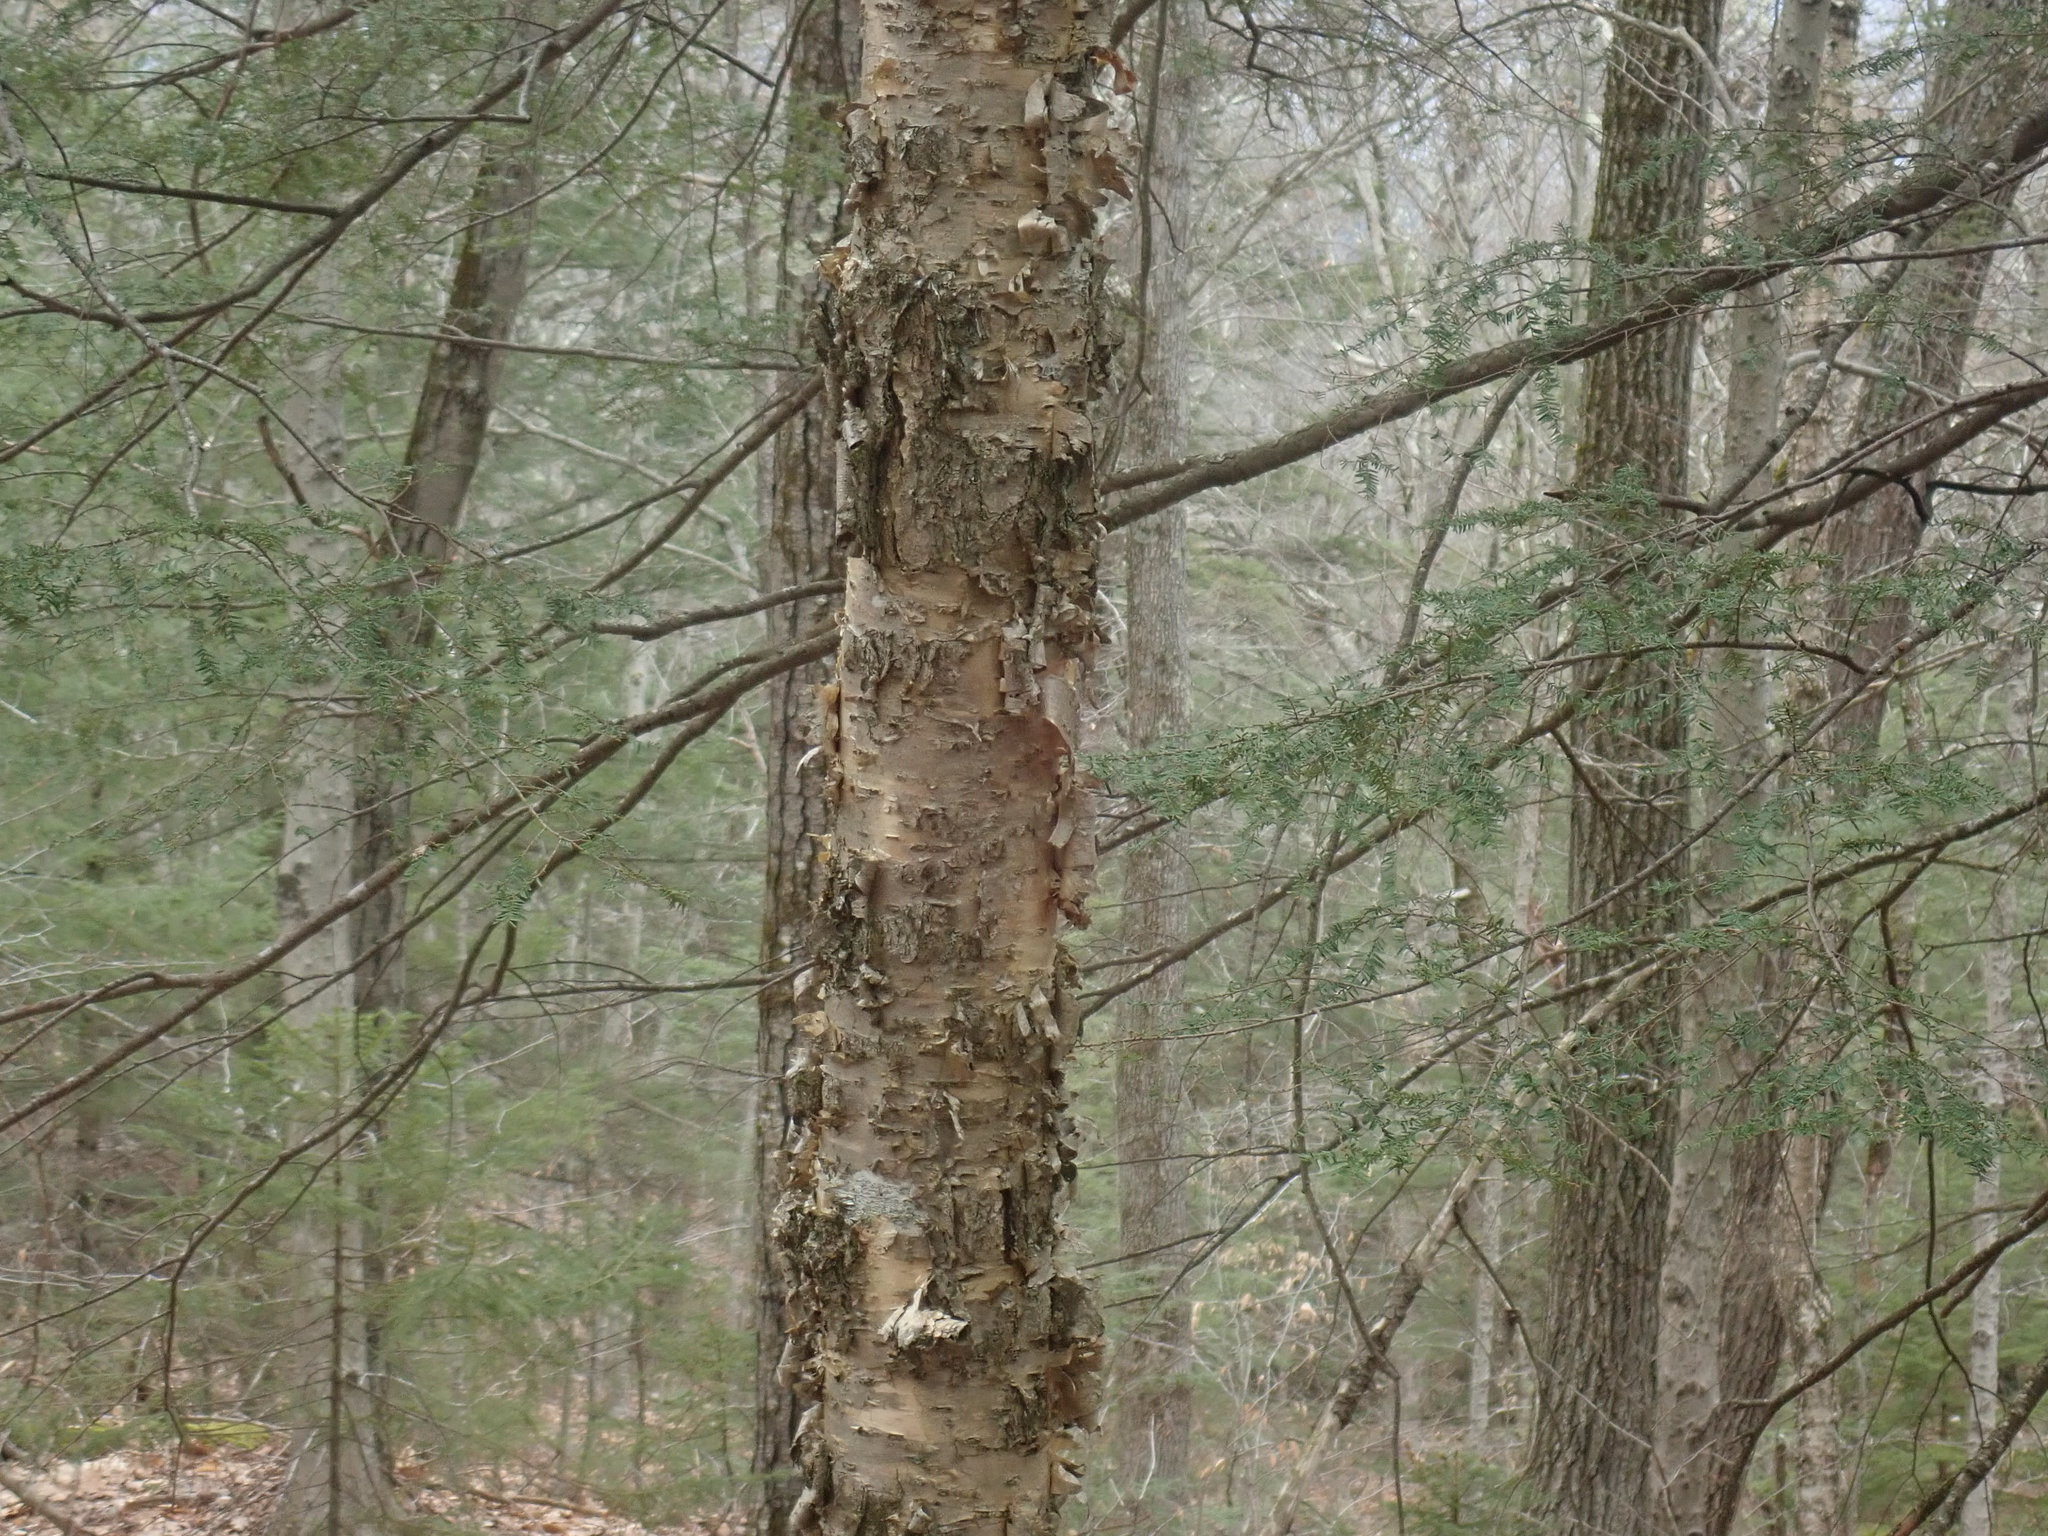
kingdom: Plantae
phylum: Tracheophyta
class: Magnoliopsida
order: Fagales
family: Betulaceae
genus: Betula
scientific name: Betula alleghaniensis
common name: Yellow birch
